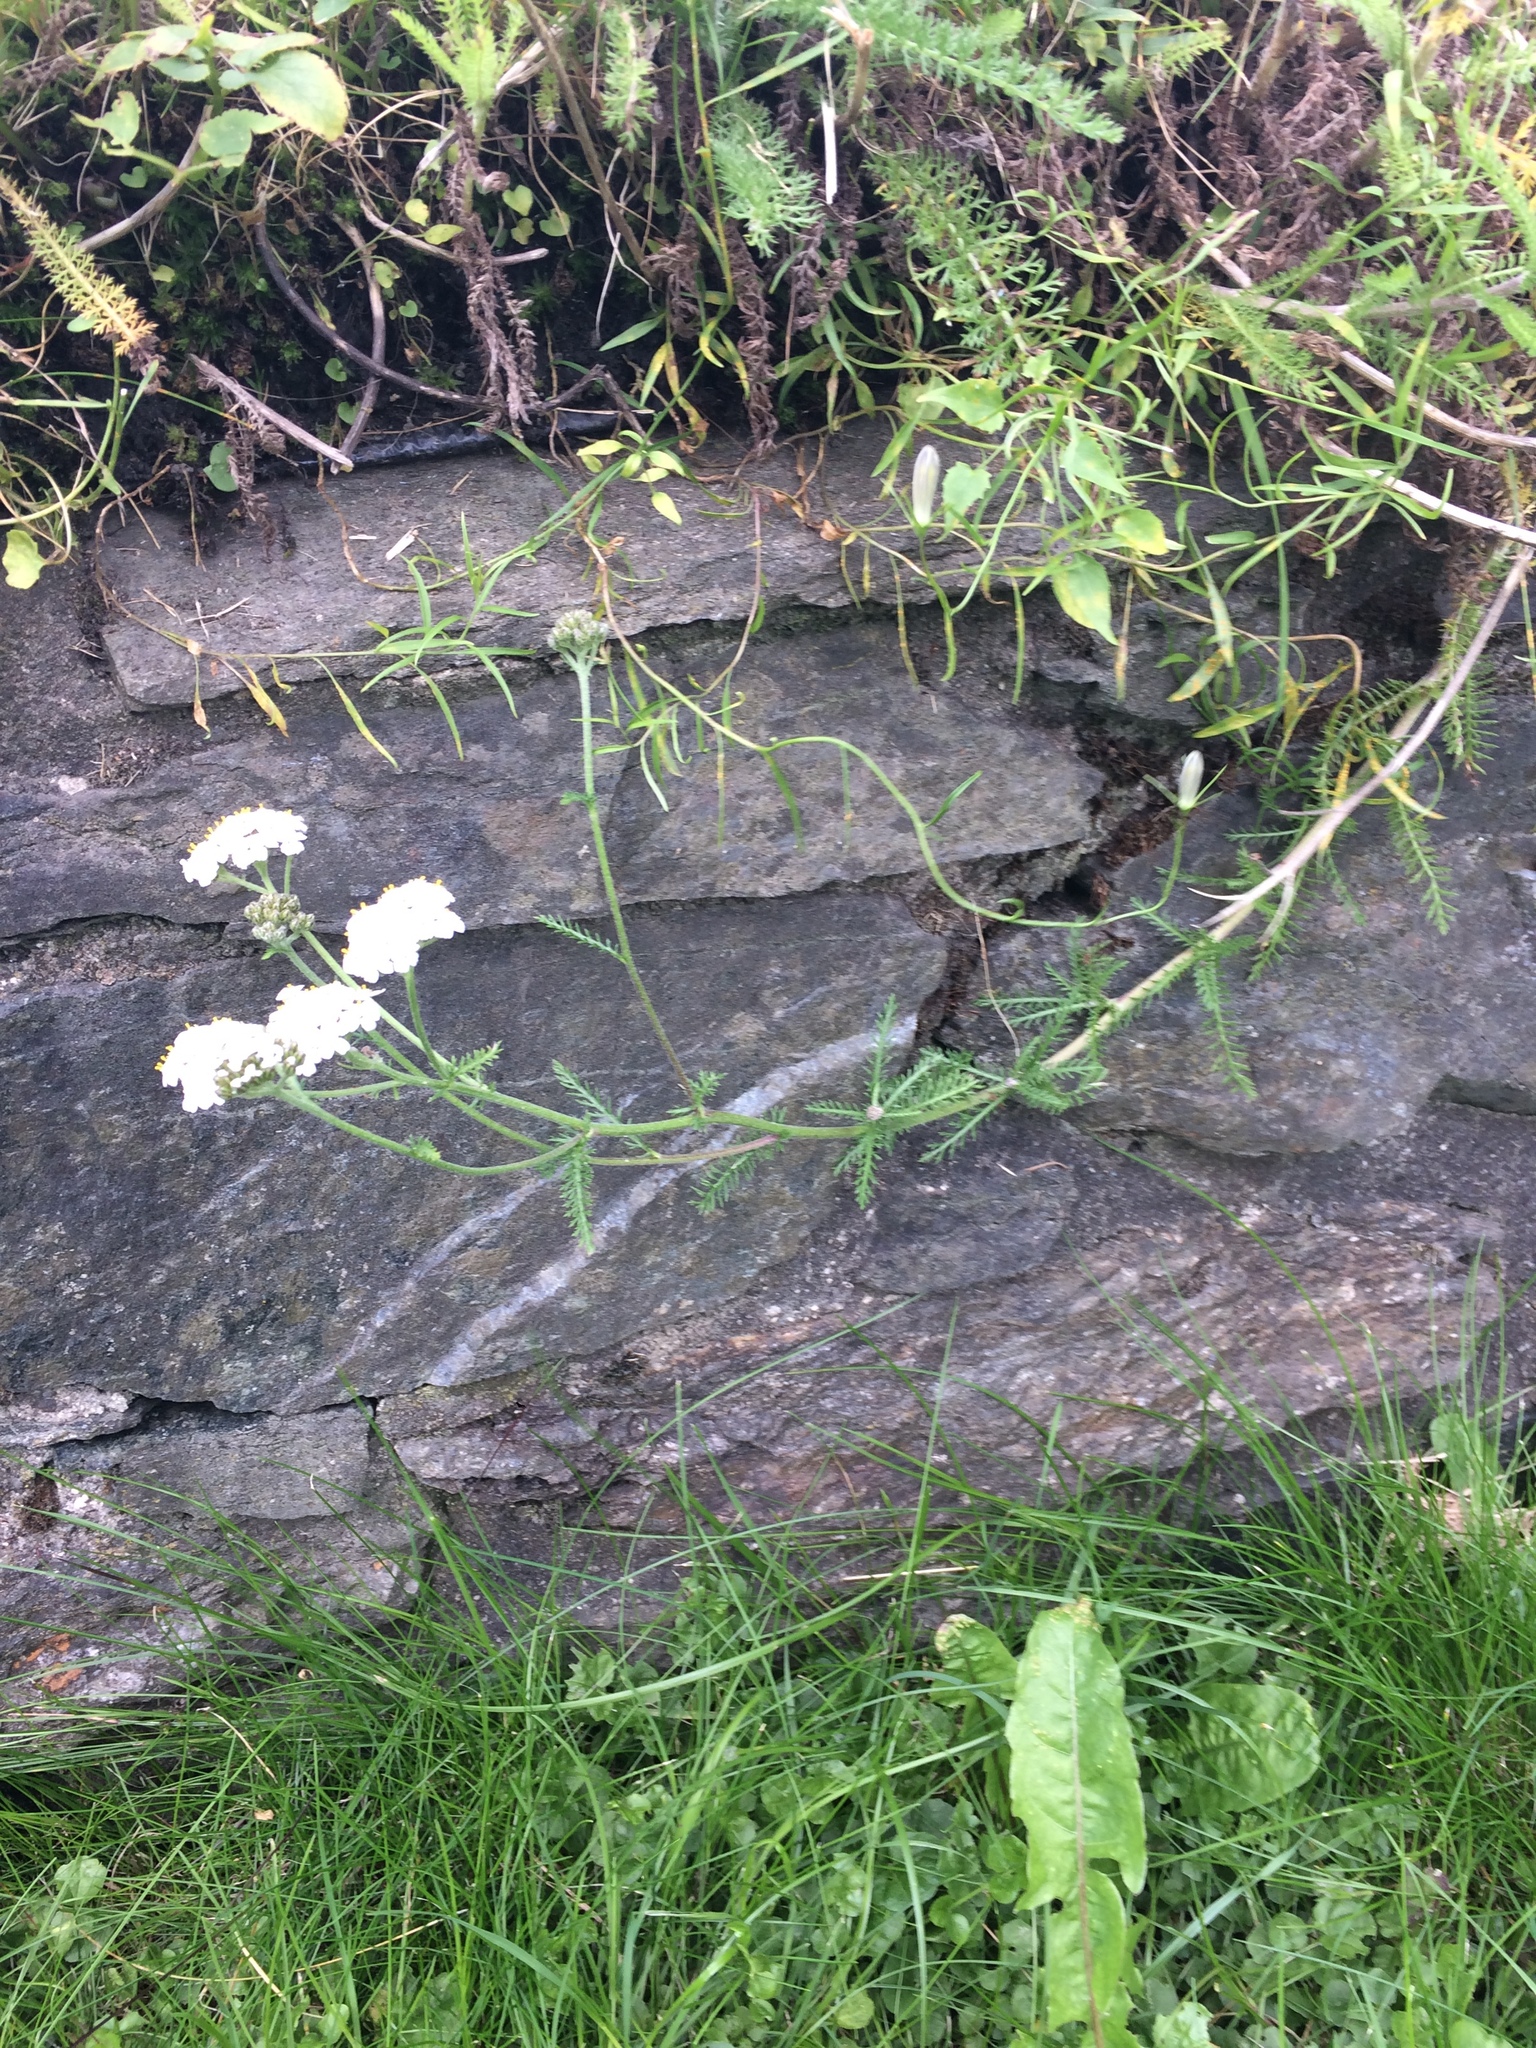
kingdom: Plantae
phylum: Tracheophyta
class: Magnoliopsida
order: Asterales
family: Asteraceae
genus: Achillea
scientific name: Achillea millefolium
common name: Yarrow
